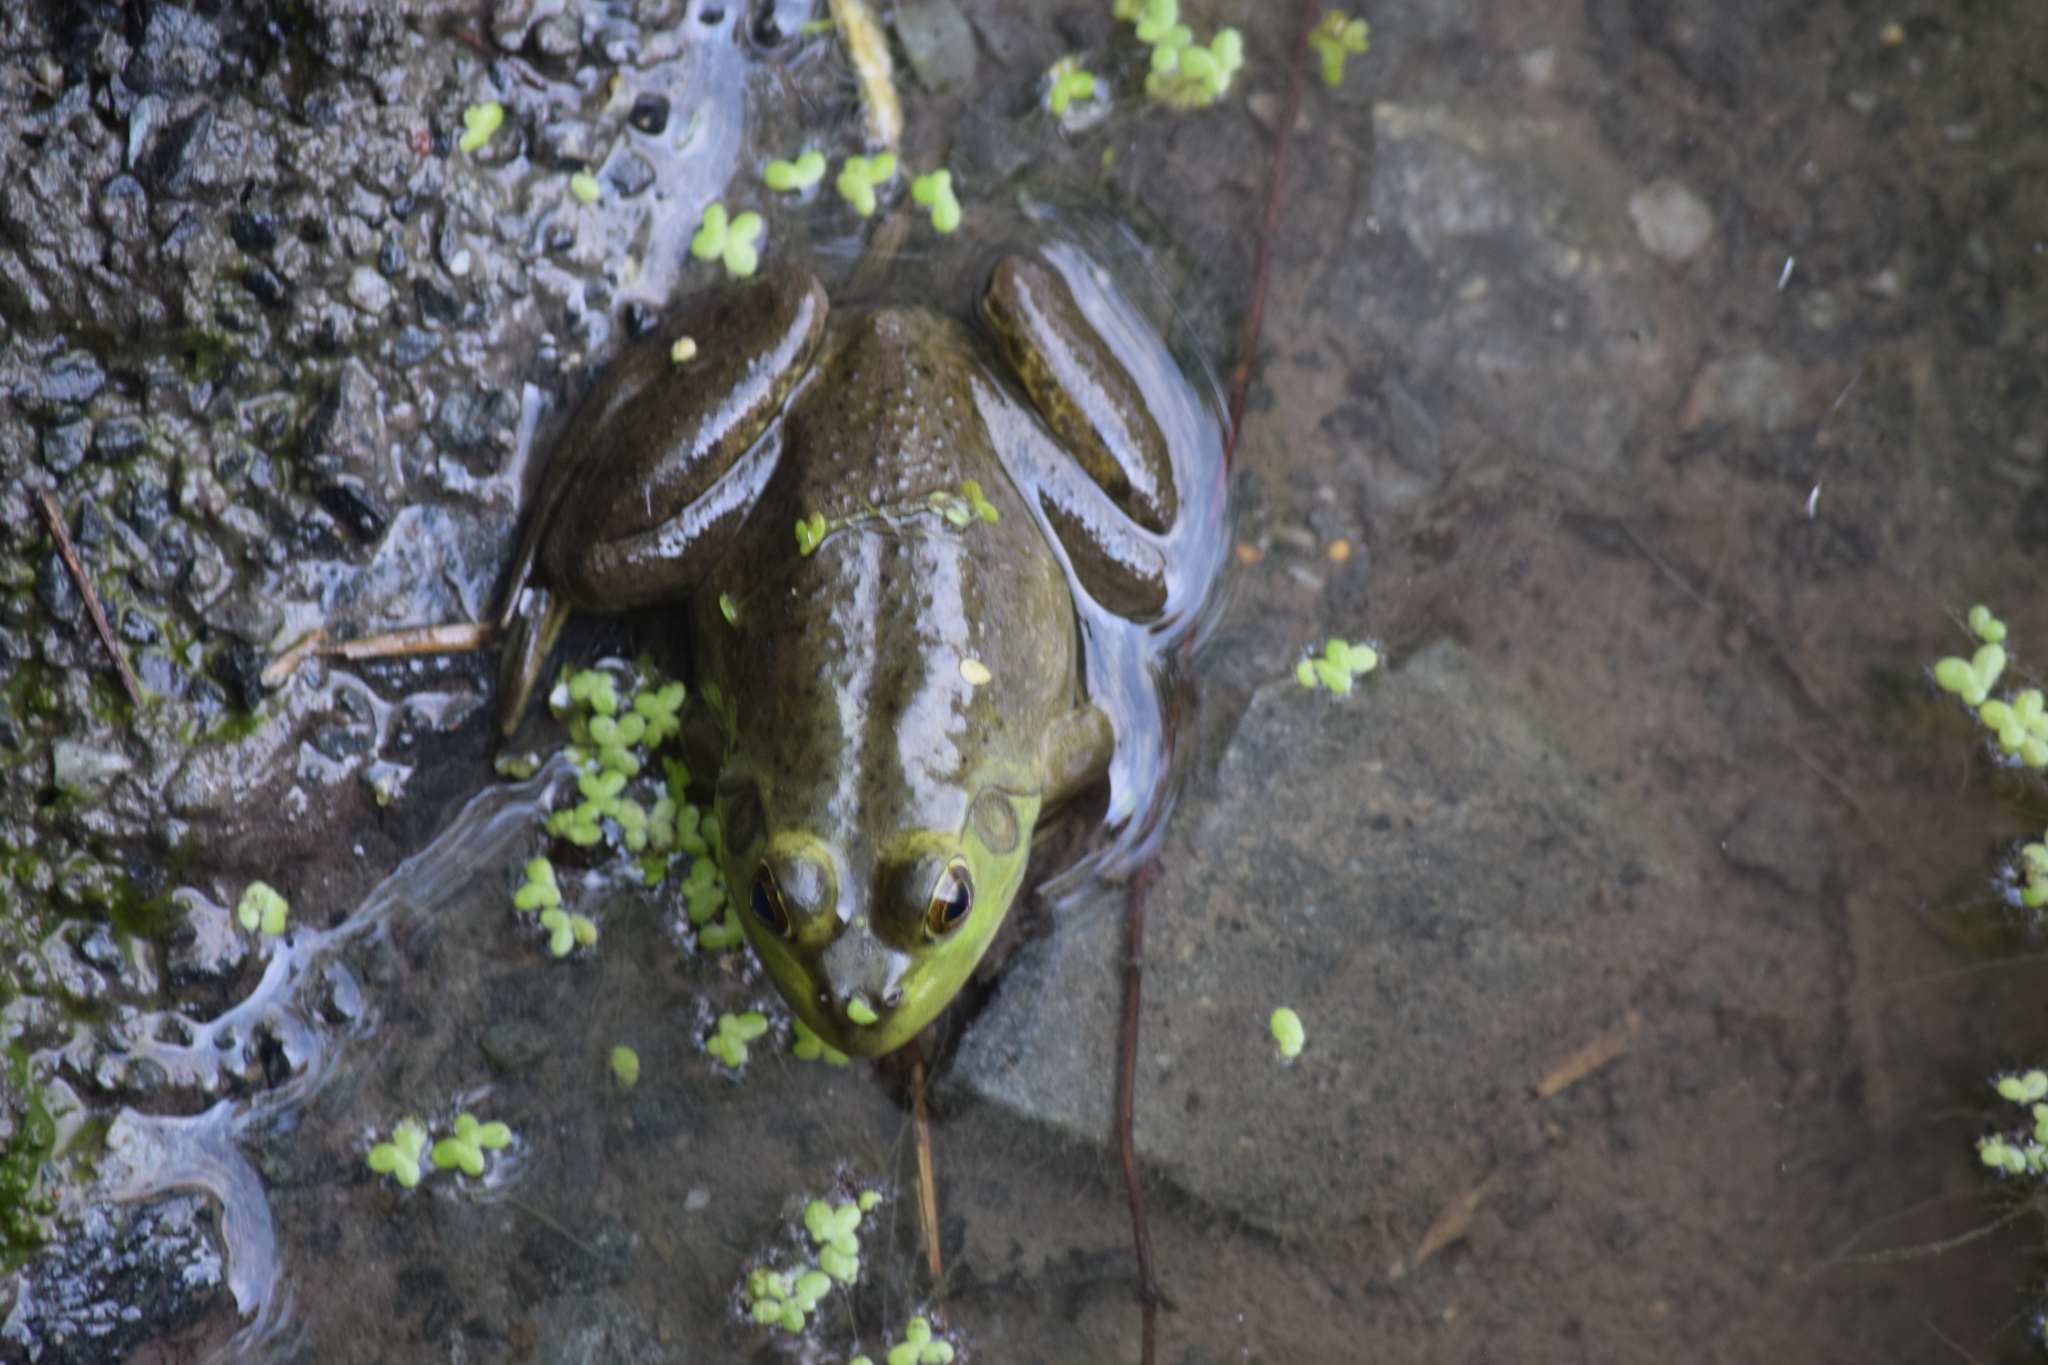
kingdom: Animalia
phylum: Chordata
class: Amphibia
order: Anura
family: Ranidae
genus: Lithobates
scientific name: Lithobates catesbeianus
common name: American bullfrog
